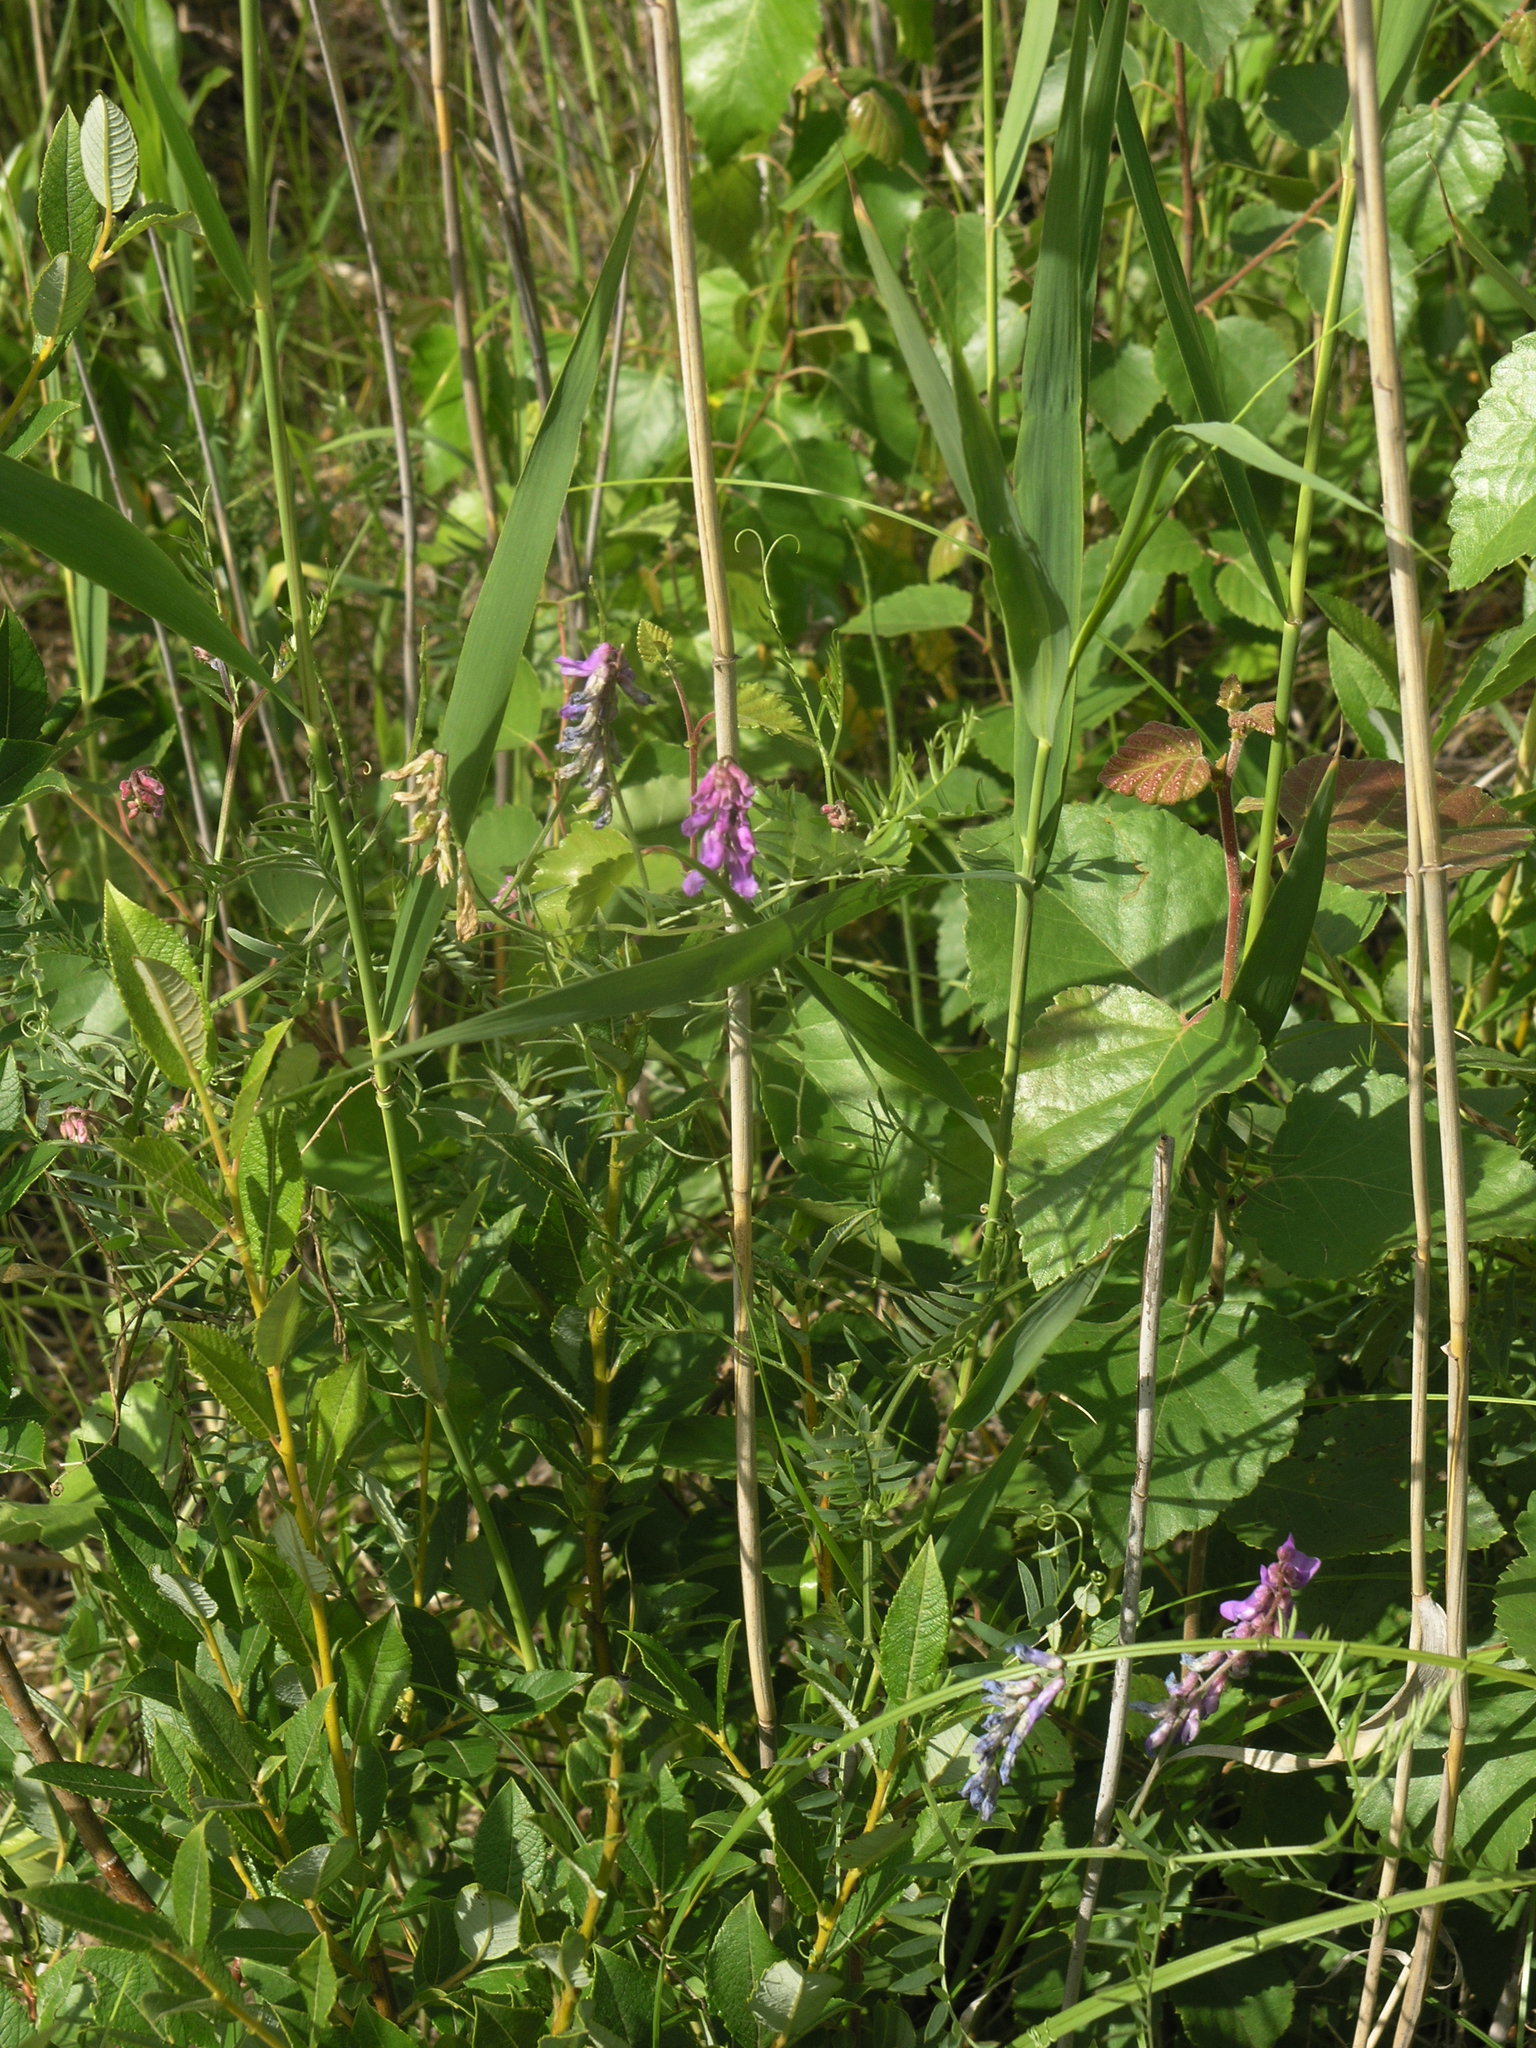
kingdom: Plantae
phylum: Tracheophyta
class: Magnoliopsida
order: Fabales
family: Fabaceae
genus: Vicia
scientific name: Vicia cracca
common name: Bird vetch
